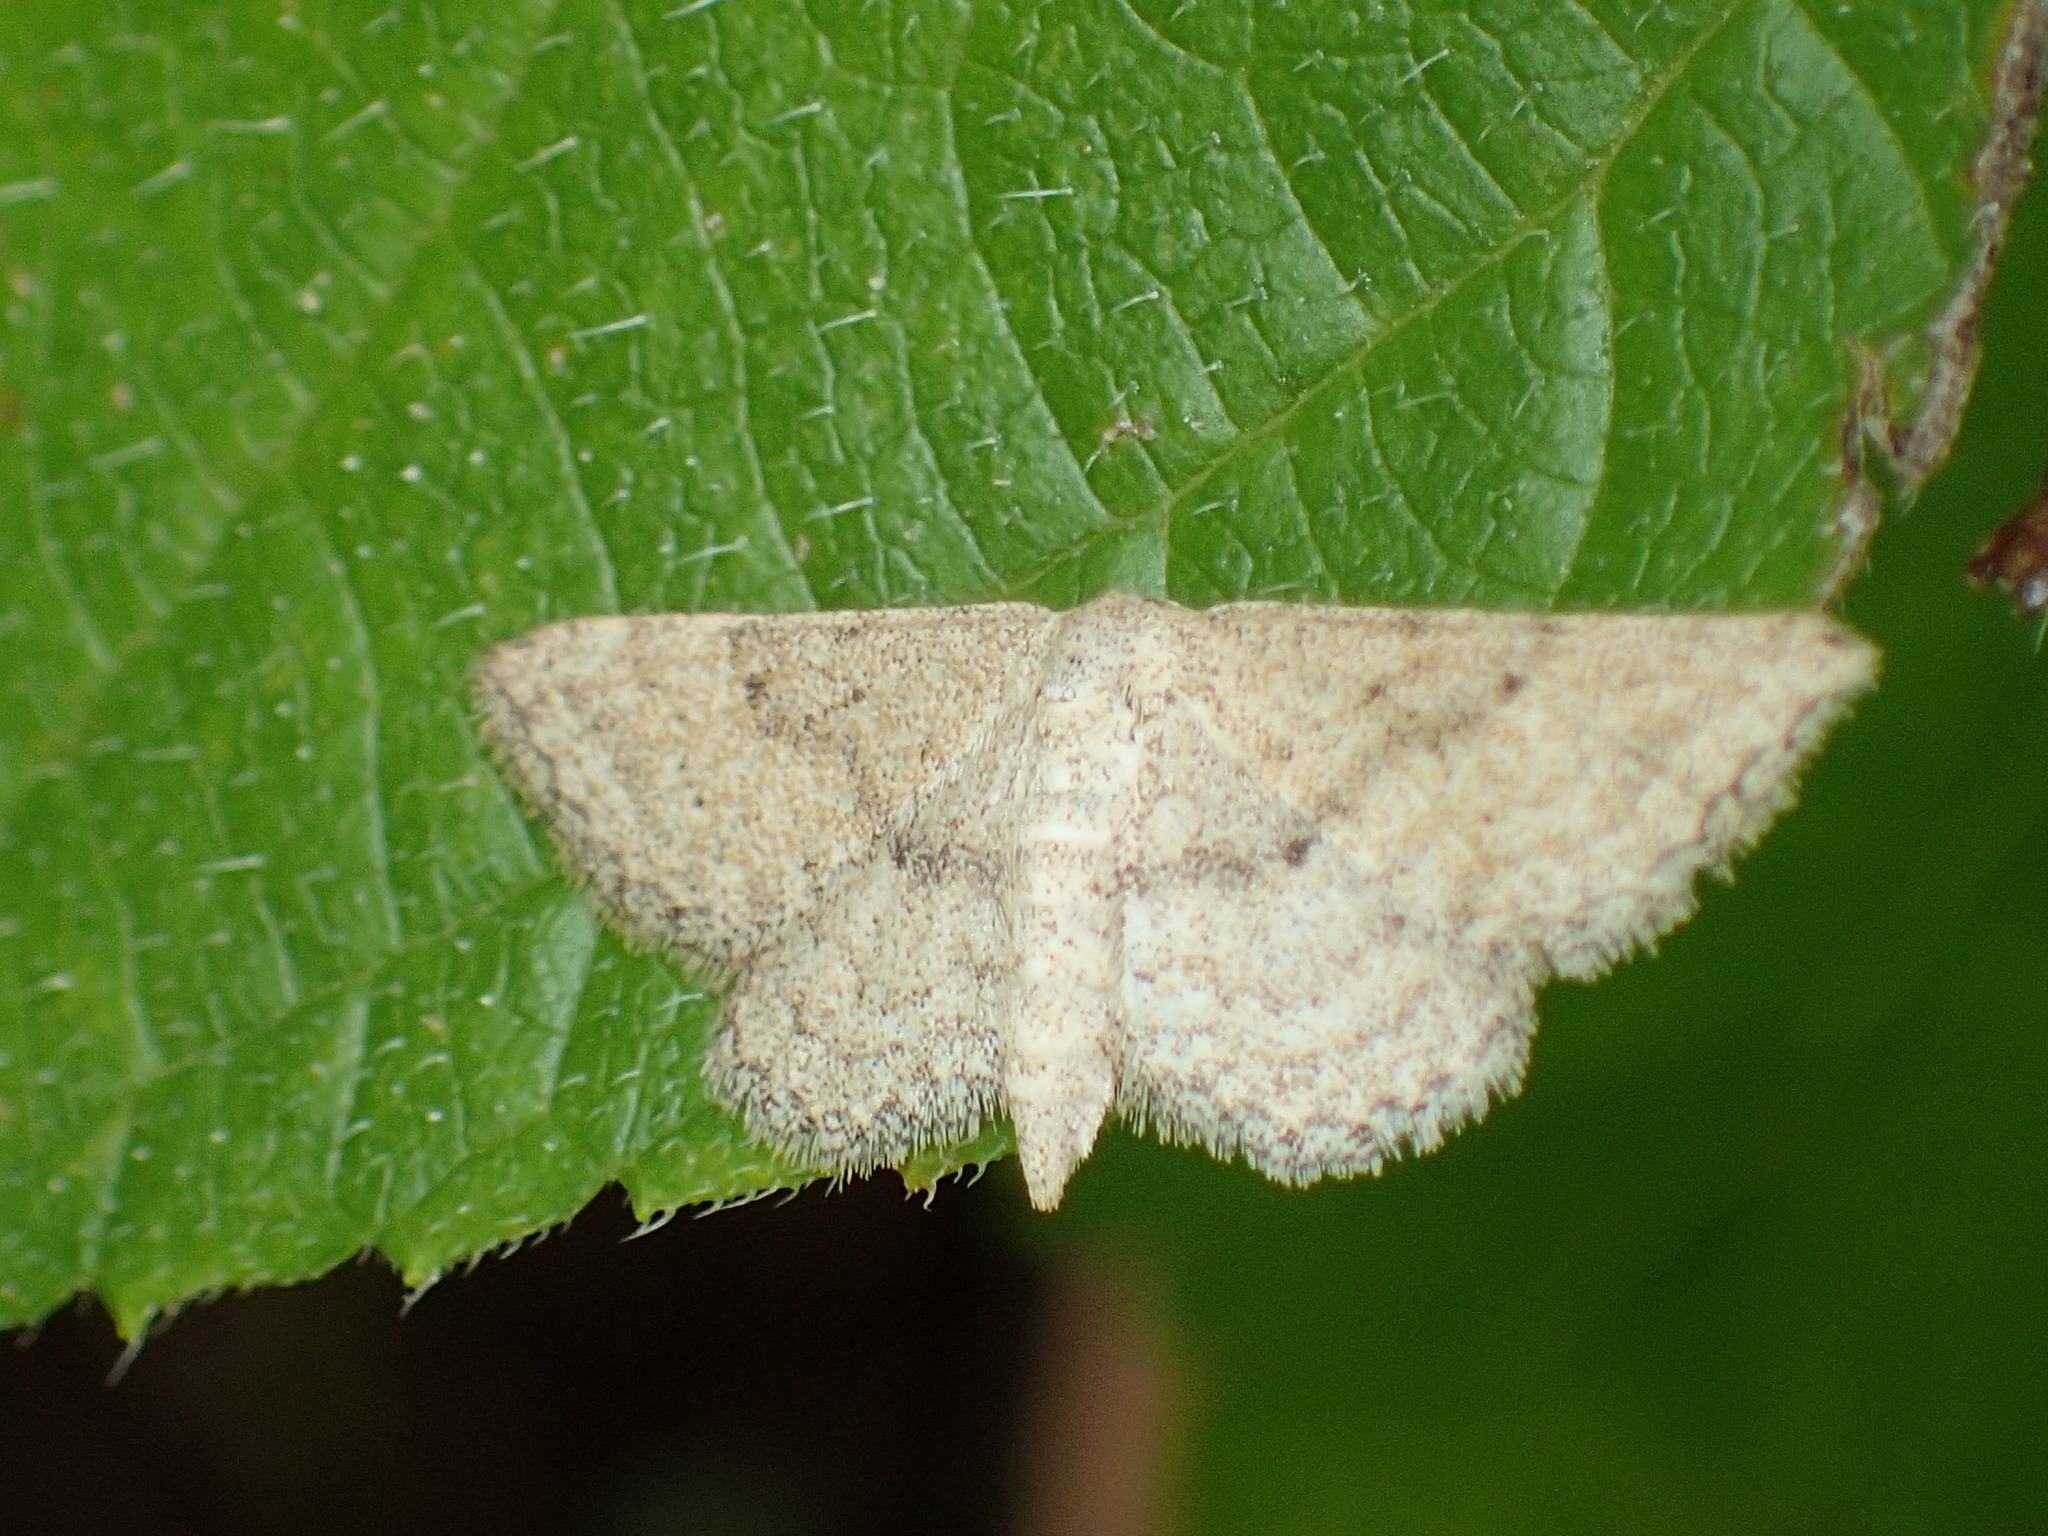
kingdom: Animalia
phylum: Arthropoda
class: Insecta
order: Lepidoptera
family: Geometridae
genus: Lobocleta
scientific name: Lobocleta ossularia
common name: Drab brown wave
